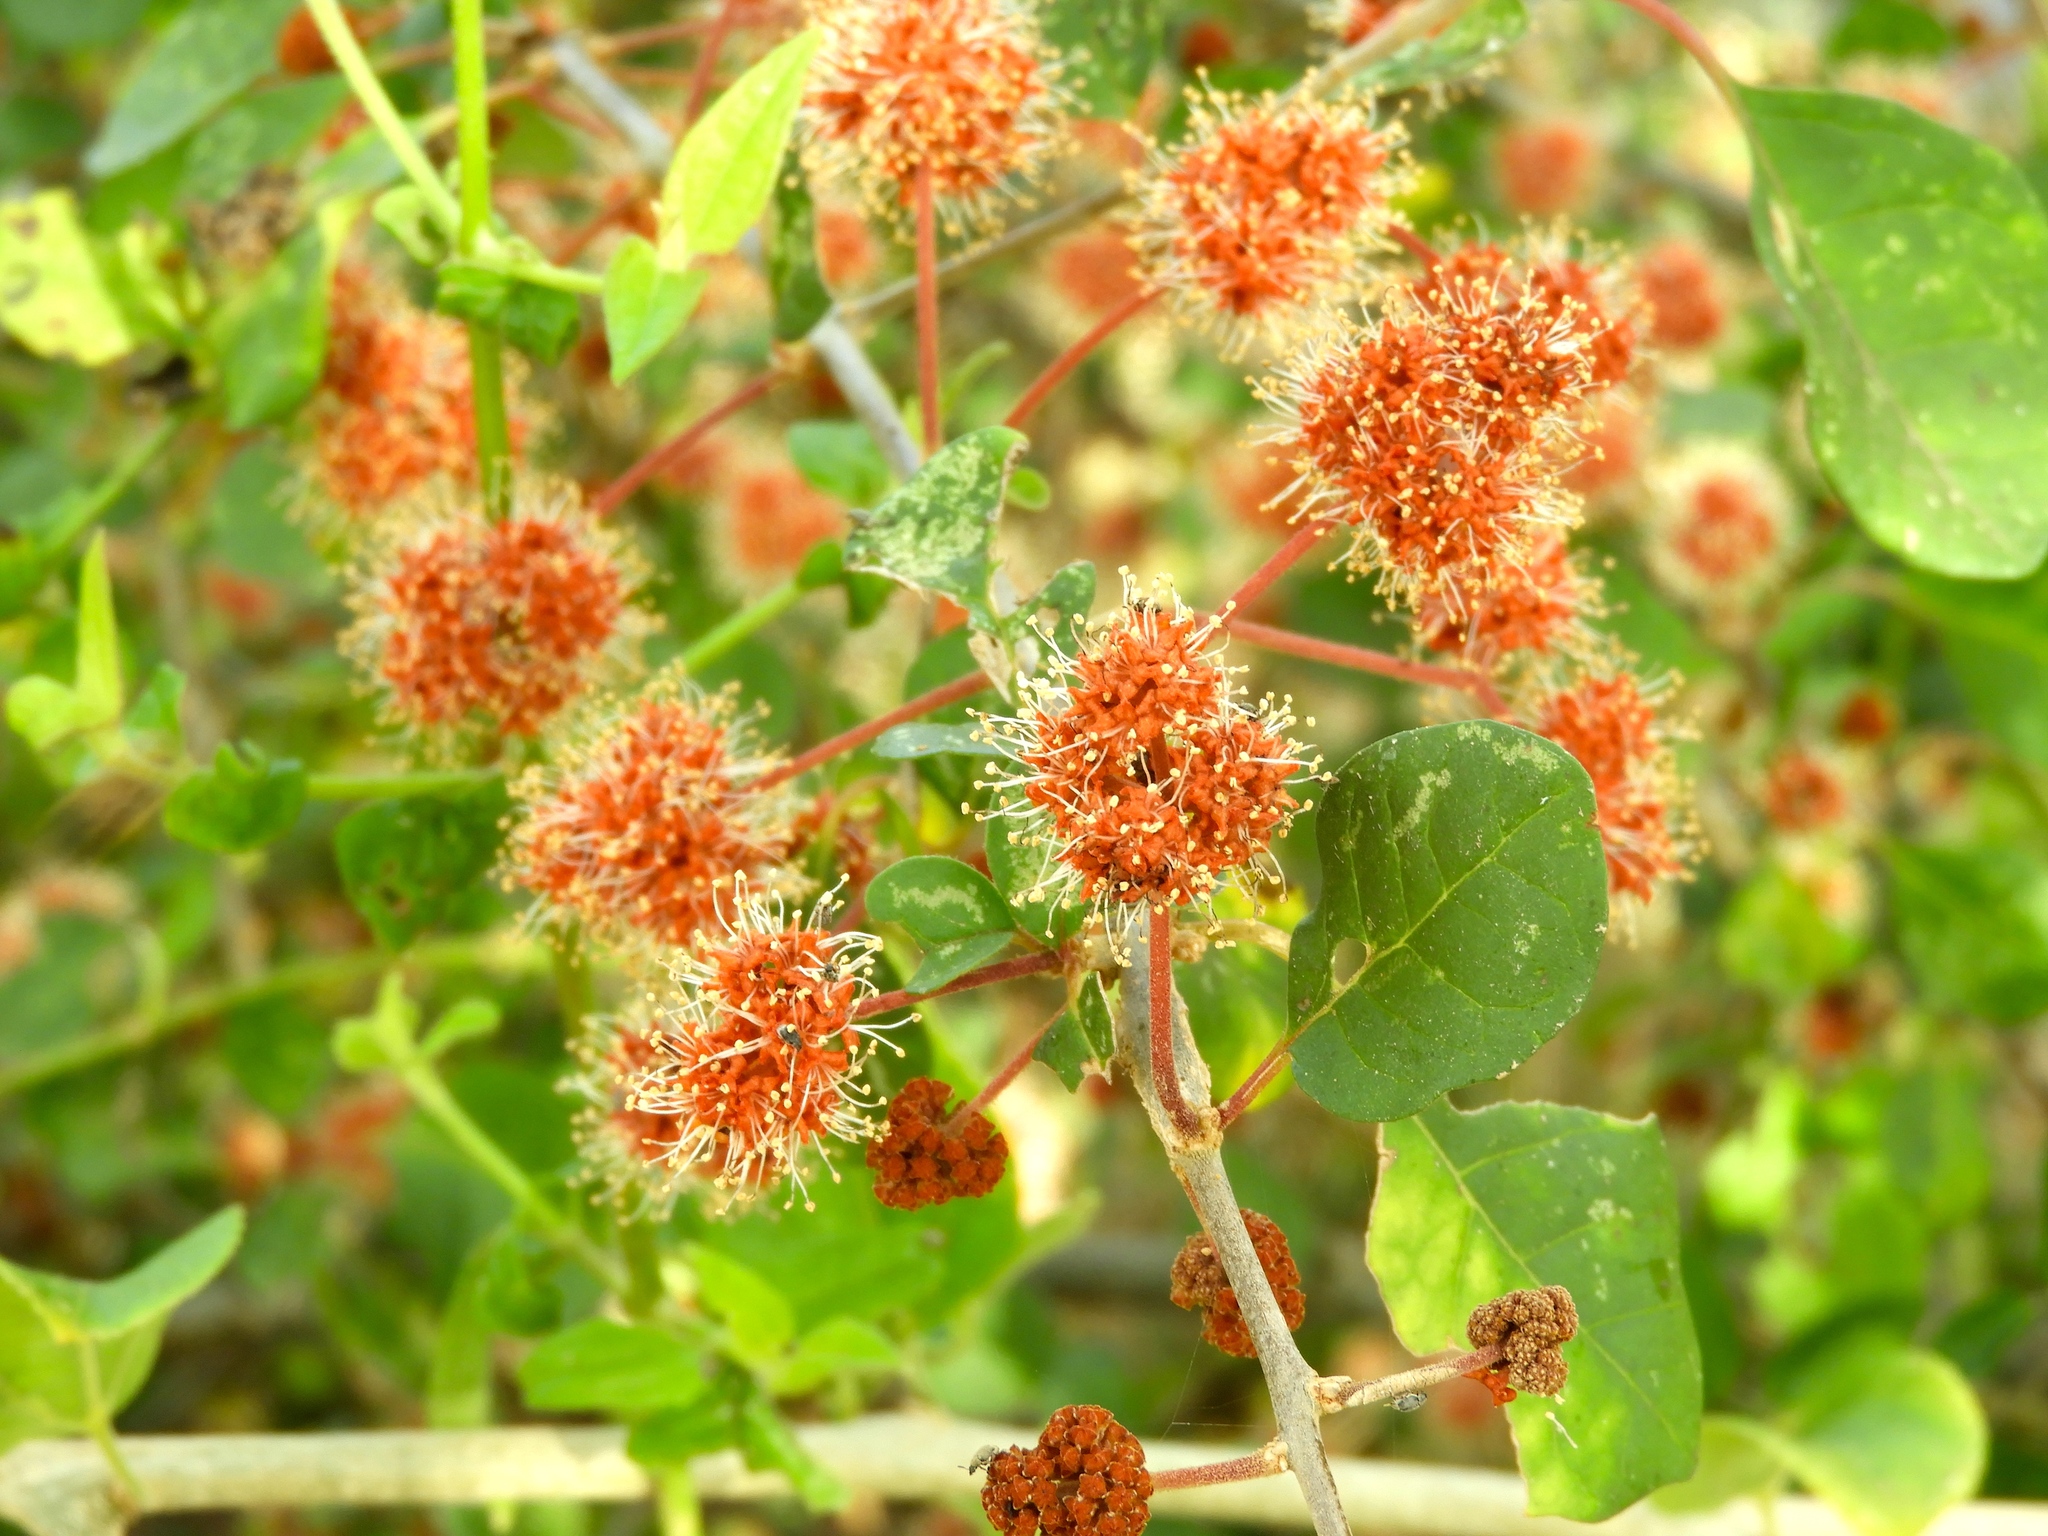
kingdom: Plantae
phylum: Tracheophyta
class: Magnoliopsida
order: Caryophyllales
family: Nyctaginaceae
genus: Pisonia
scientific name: Pisonia capitata
